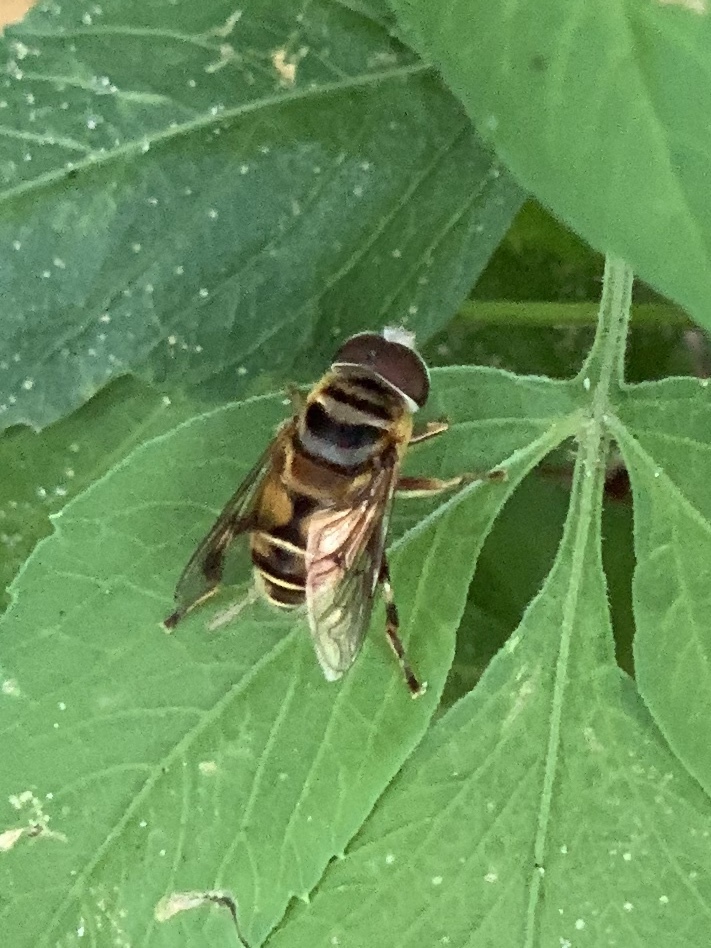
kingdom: Animalia
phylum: Arthropoda
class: Insecta
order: Diptera
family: Syrphidae
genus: Palpada
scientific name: Palpada vinetorum
